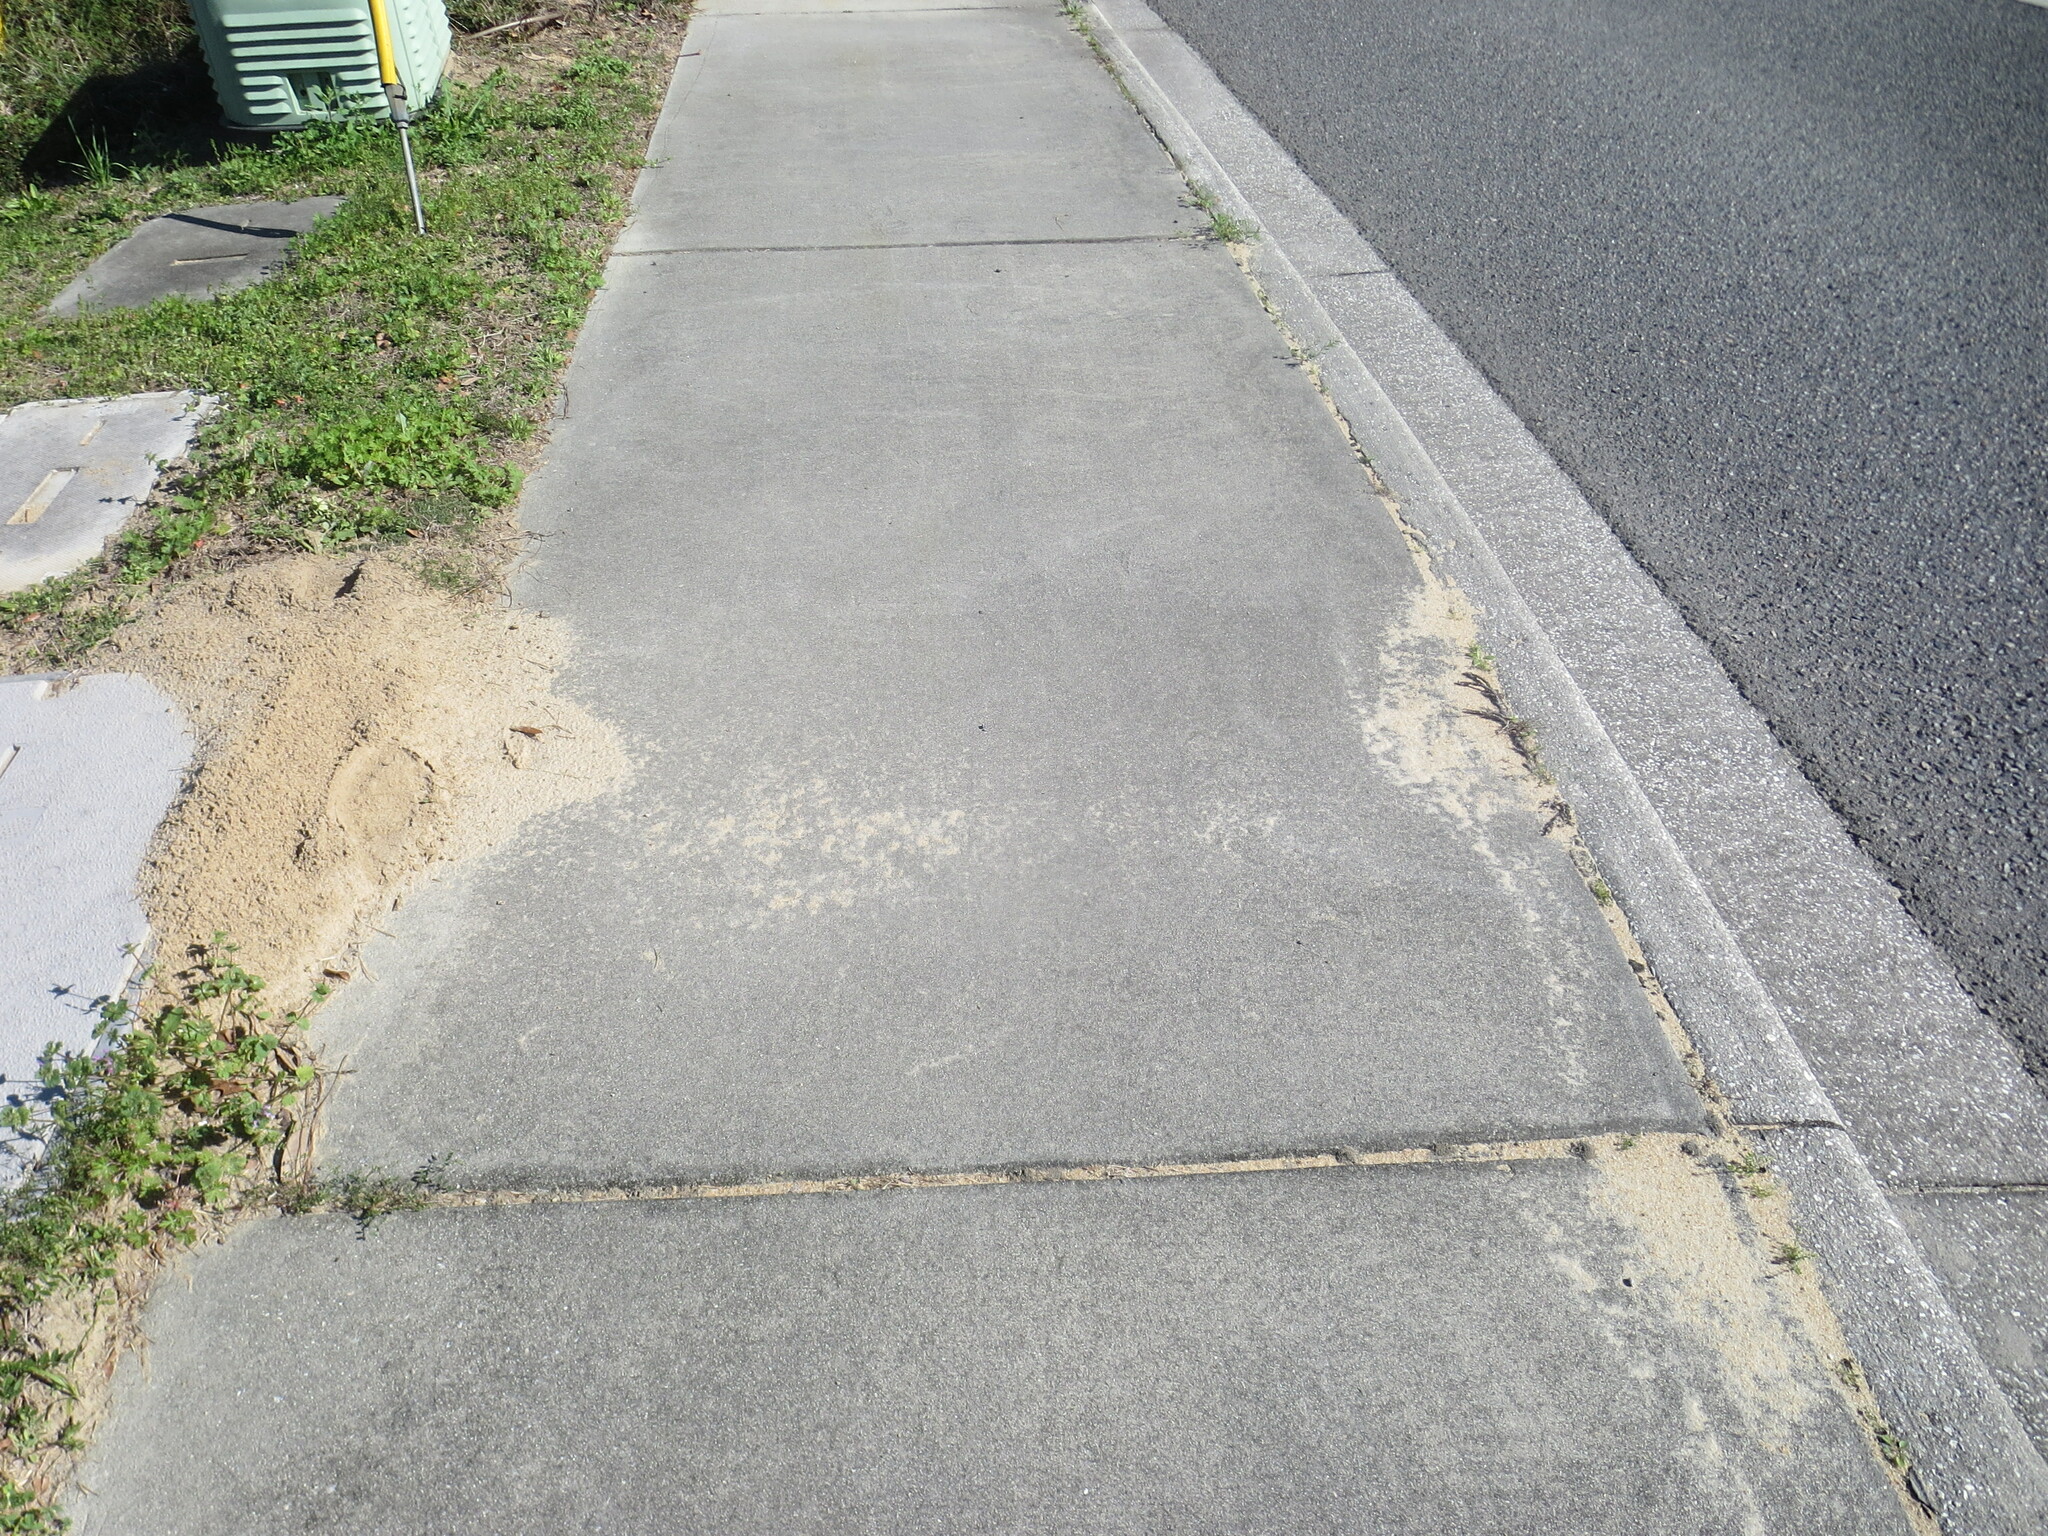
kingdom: Animalia
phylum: Arthropoda
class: Insecta
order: Hymenoptera
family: Formicidae
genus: Solenopsis
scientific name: Solenopsis invicta
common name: Red imported fire ant
